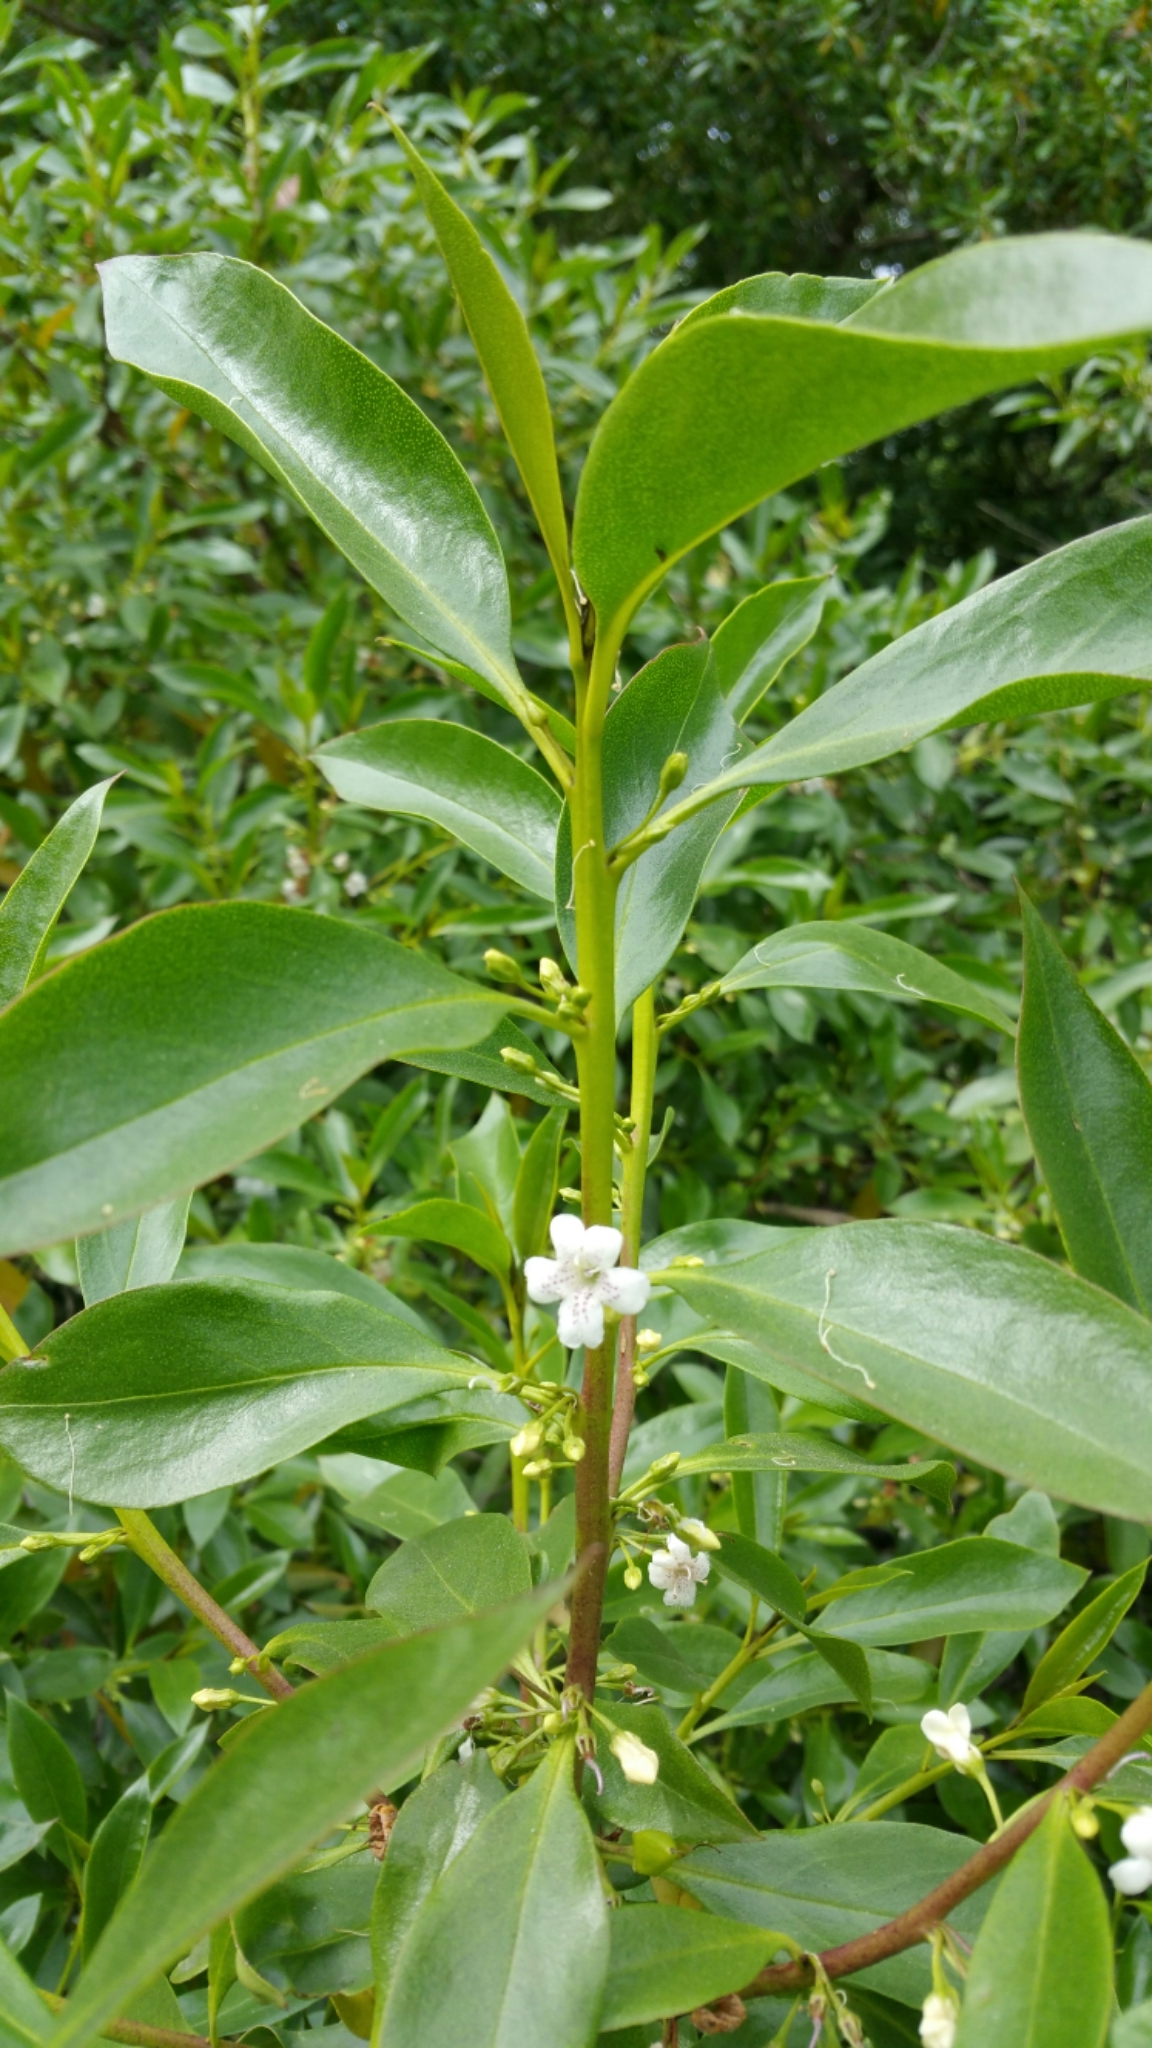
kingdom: Plantae
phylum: Tracheophyta
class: Magnoliopsida
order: Lamiales
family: Scrophulariaceae
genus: Myoporum
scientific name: Myoporum laetum
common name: Ngaio tree
